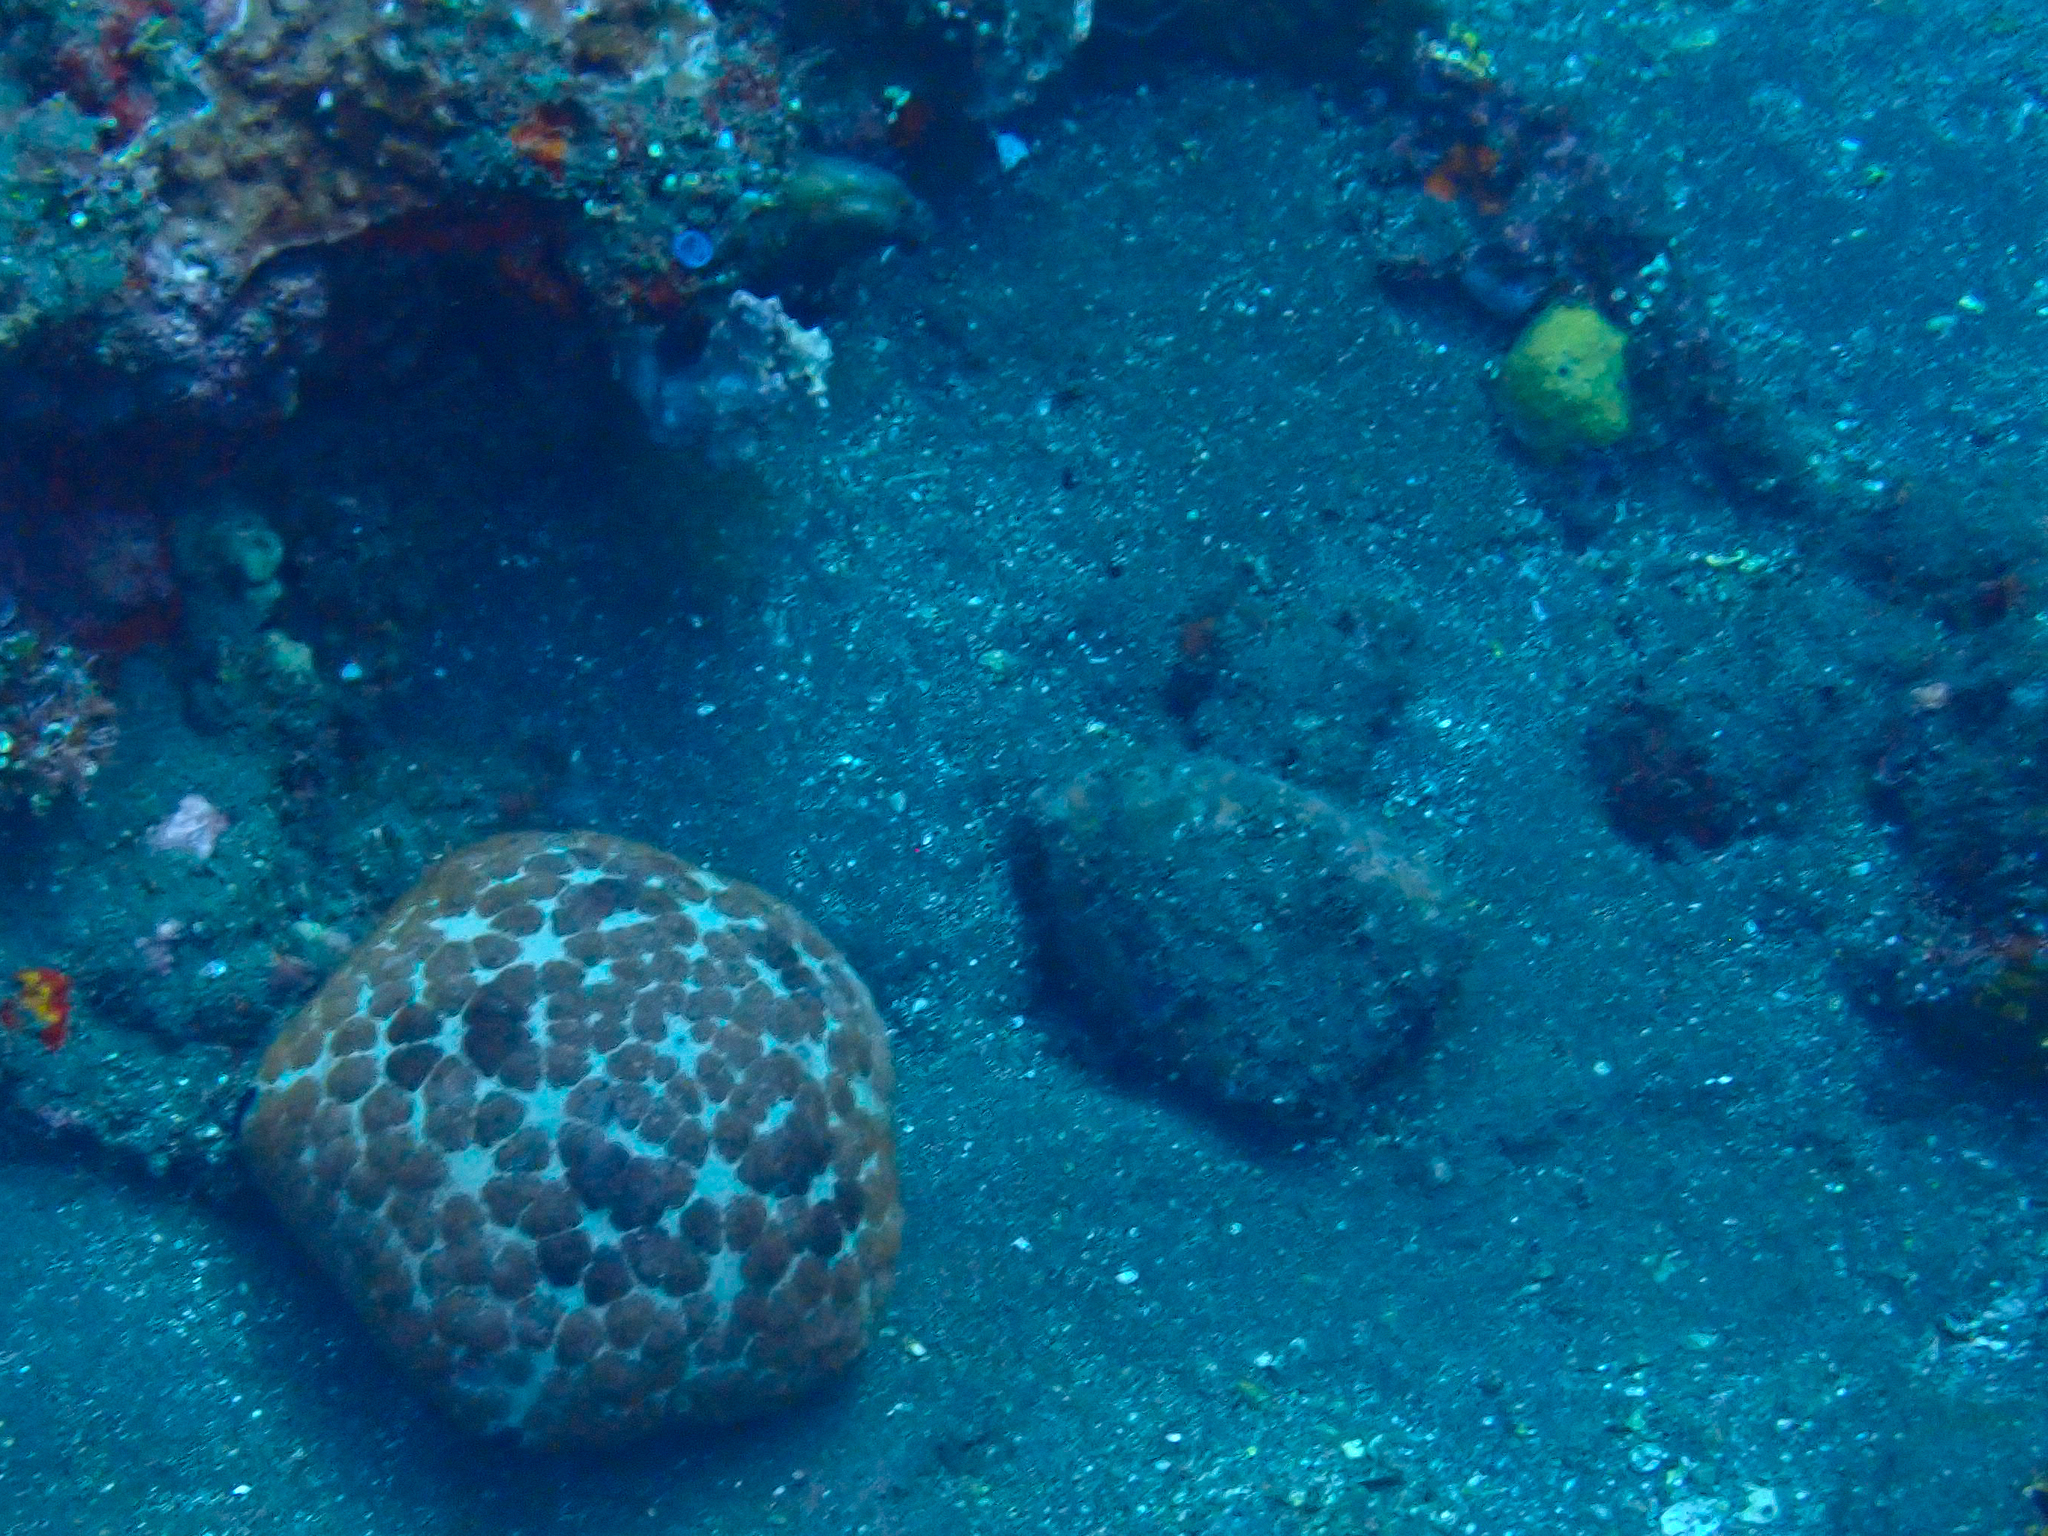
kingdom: Animalia
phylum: Echinodermata
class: Asteroidea
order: Valvatida
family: Oreasteridae
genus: Culcita
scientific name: Culcita novaeguineae
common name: Cushion star
